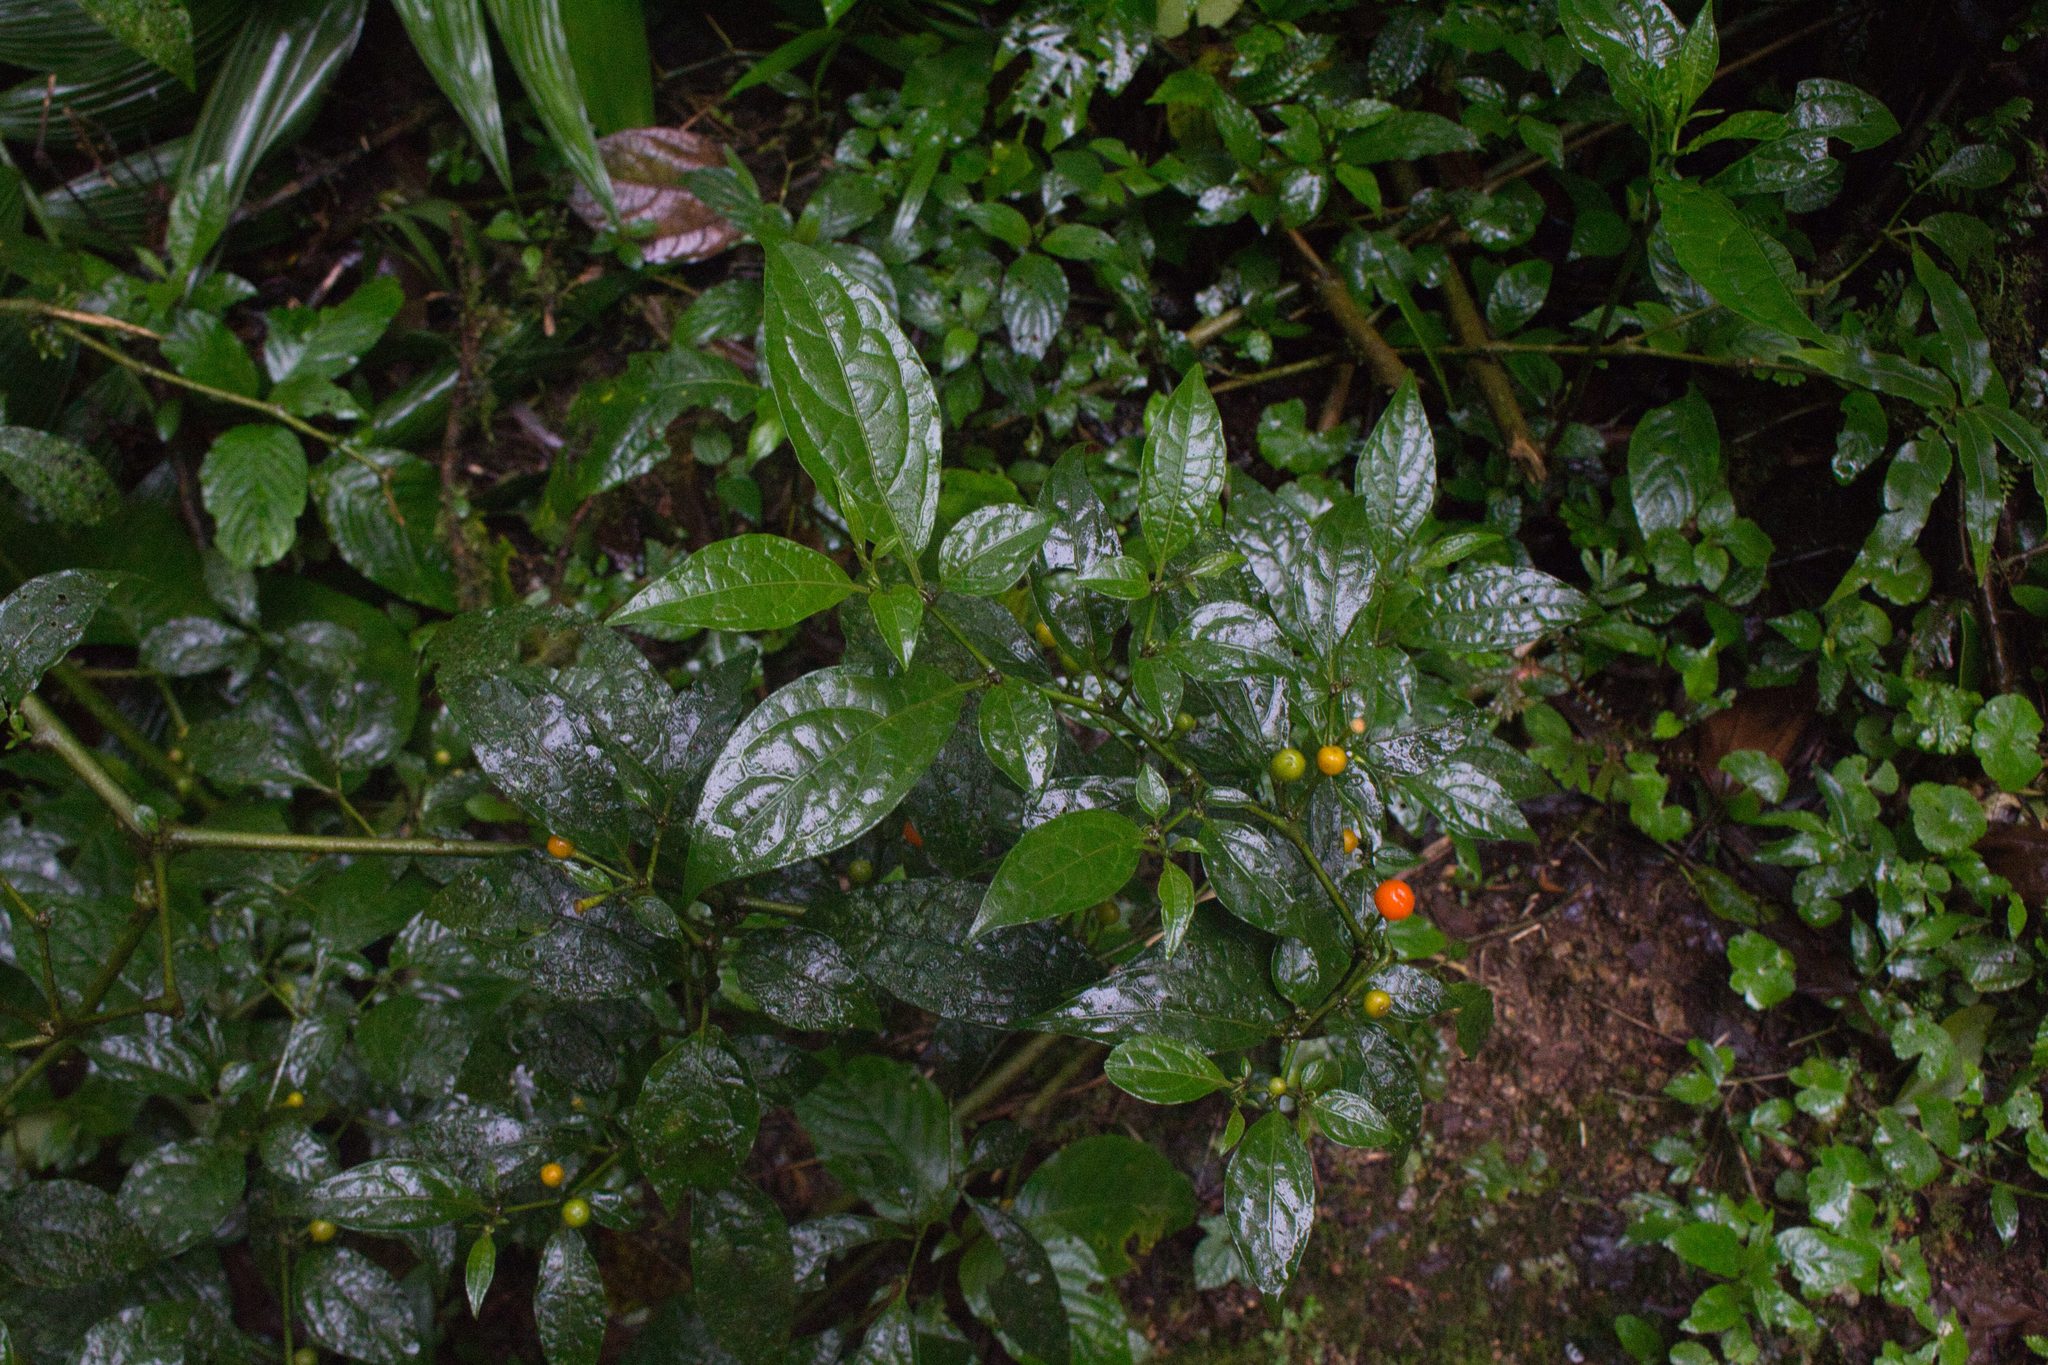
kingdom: Plantae
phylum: Tracheophyta
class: Magnoliopsida
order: Solanales
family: Solanaceae
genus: Witheringia
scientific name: Witheringia solanacea
